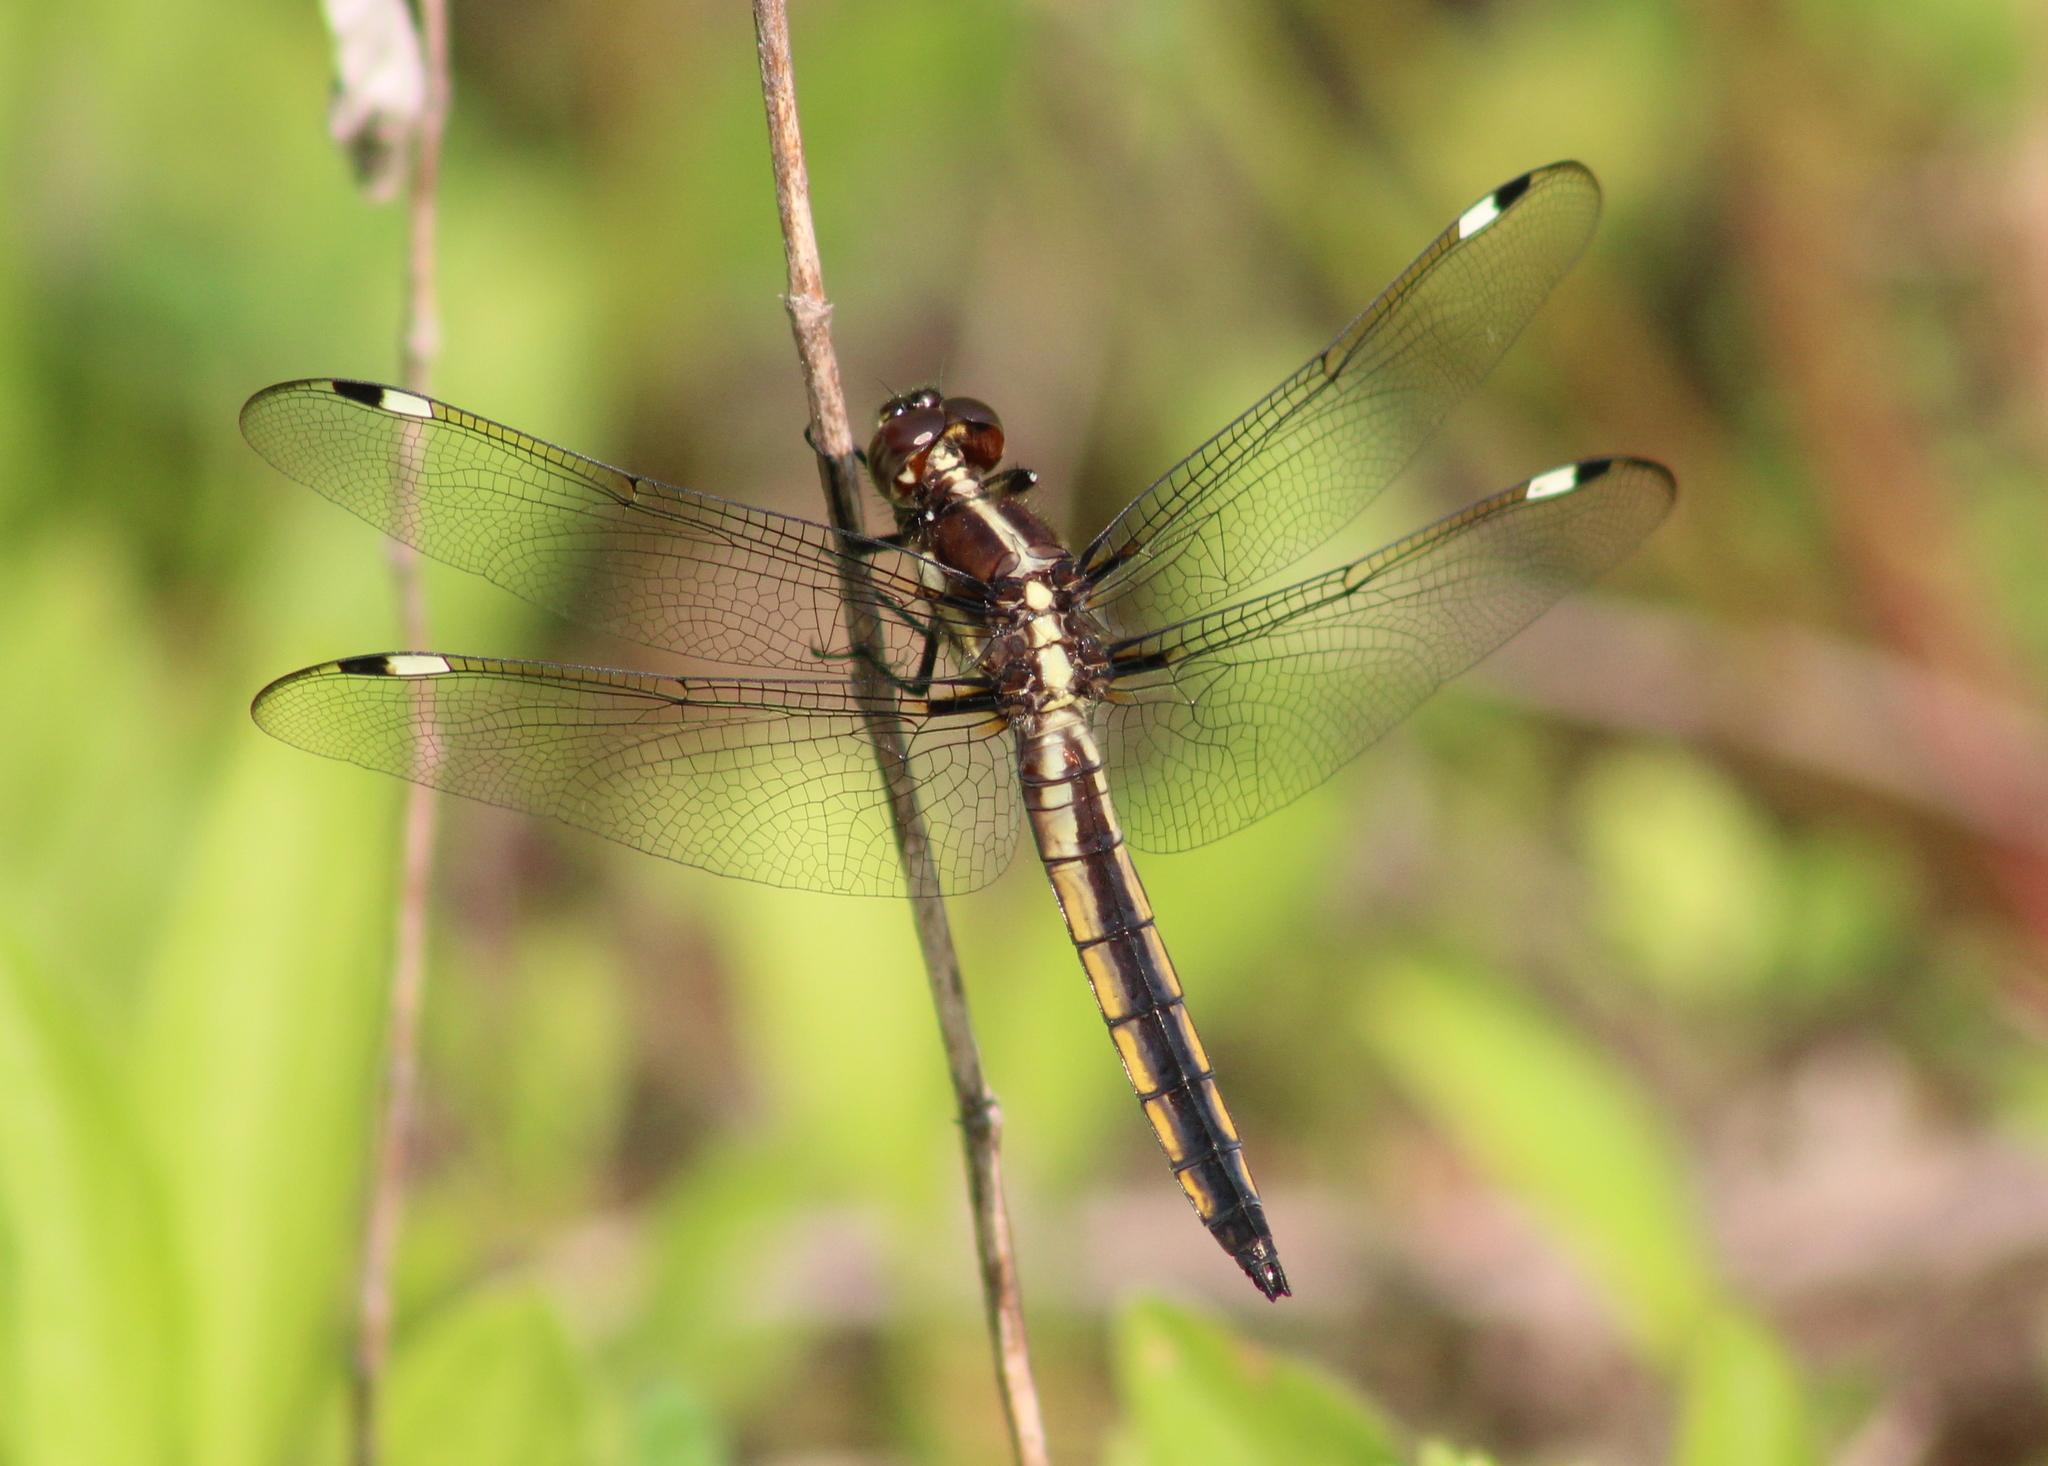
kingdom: Animalia
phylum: Arthropoda
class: Insecta
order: Odonata
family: Libellulidae
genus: Libellula
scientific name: Libellula cyanea
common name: Spangled skimmer
